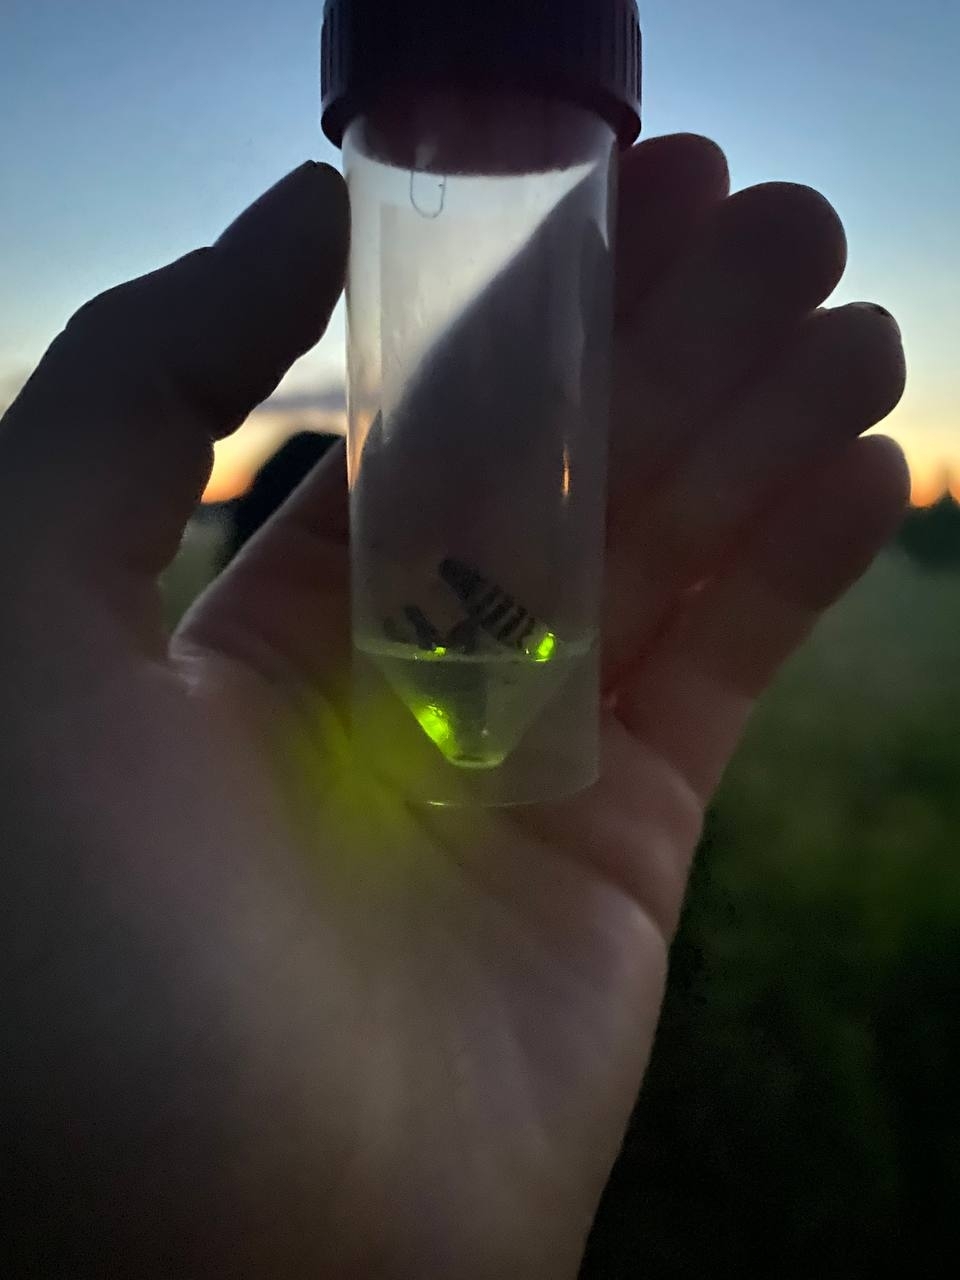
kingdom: Animalia
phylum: Arthropoda
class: Insecta
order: Coleoptera
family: Lampyridae
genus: Lampyris
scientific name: Lampyris noctiluca
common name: Glow-worm
